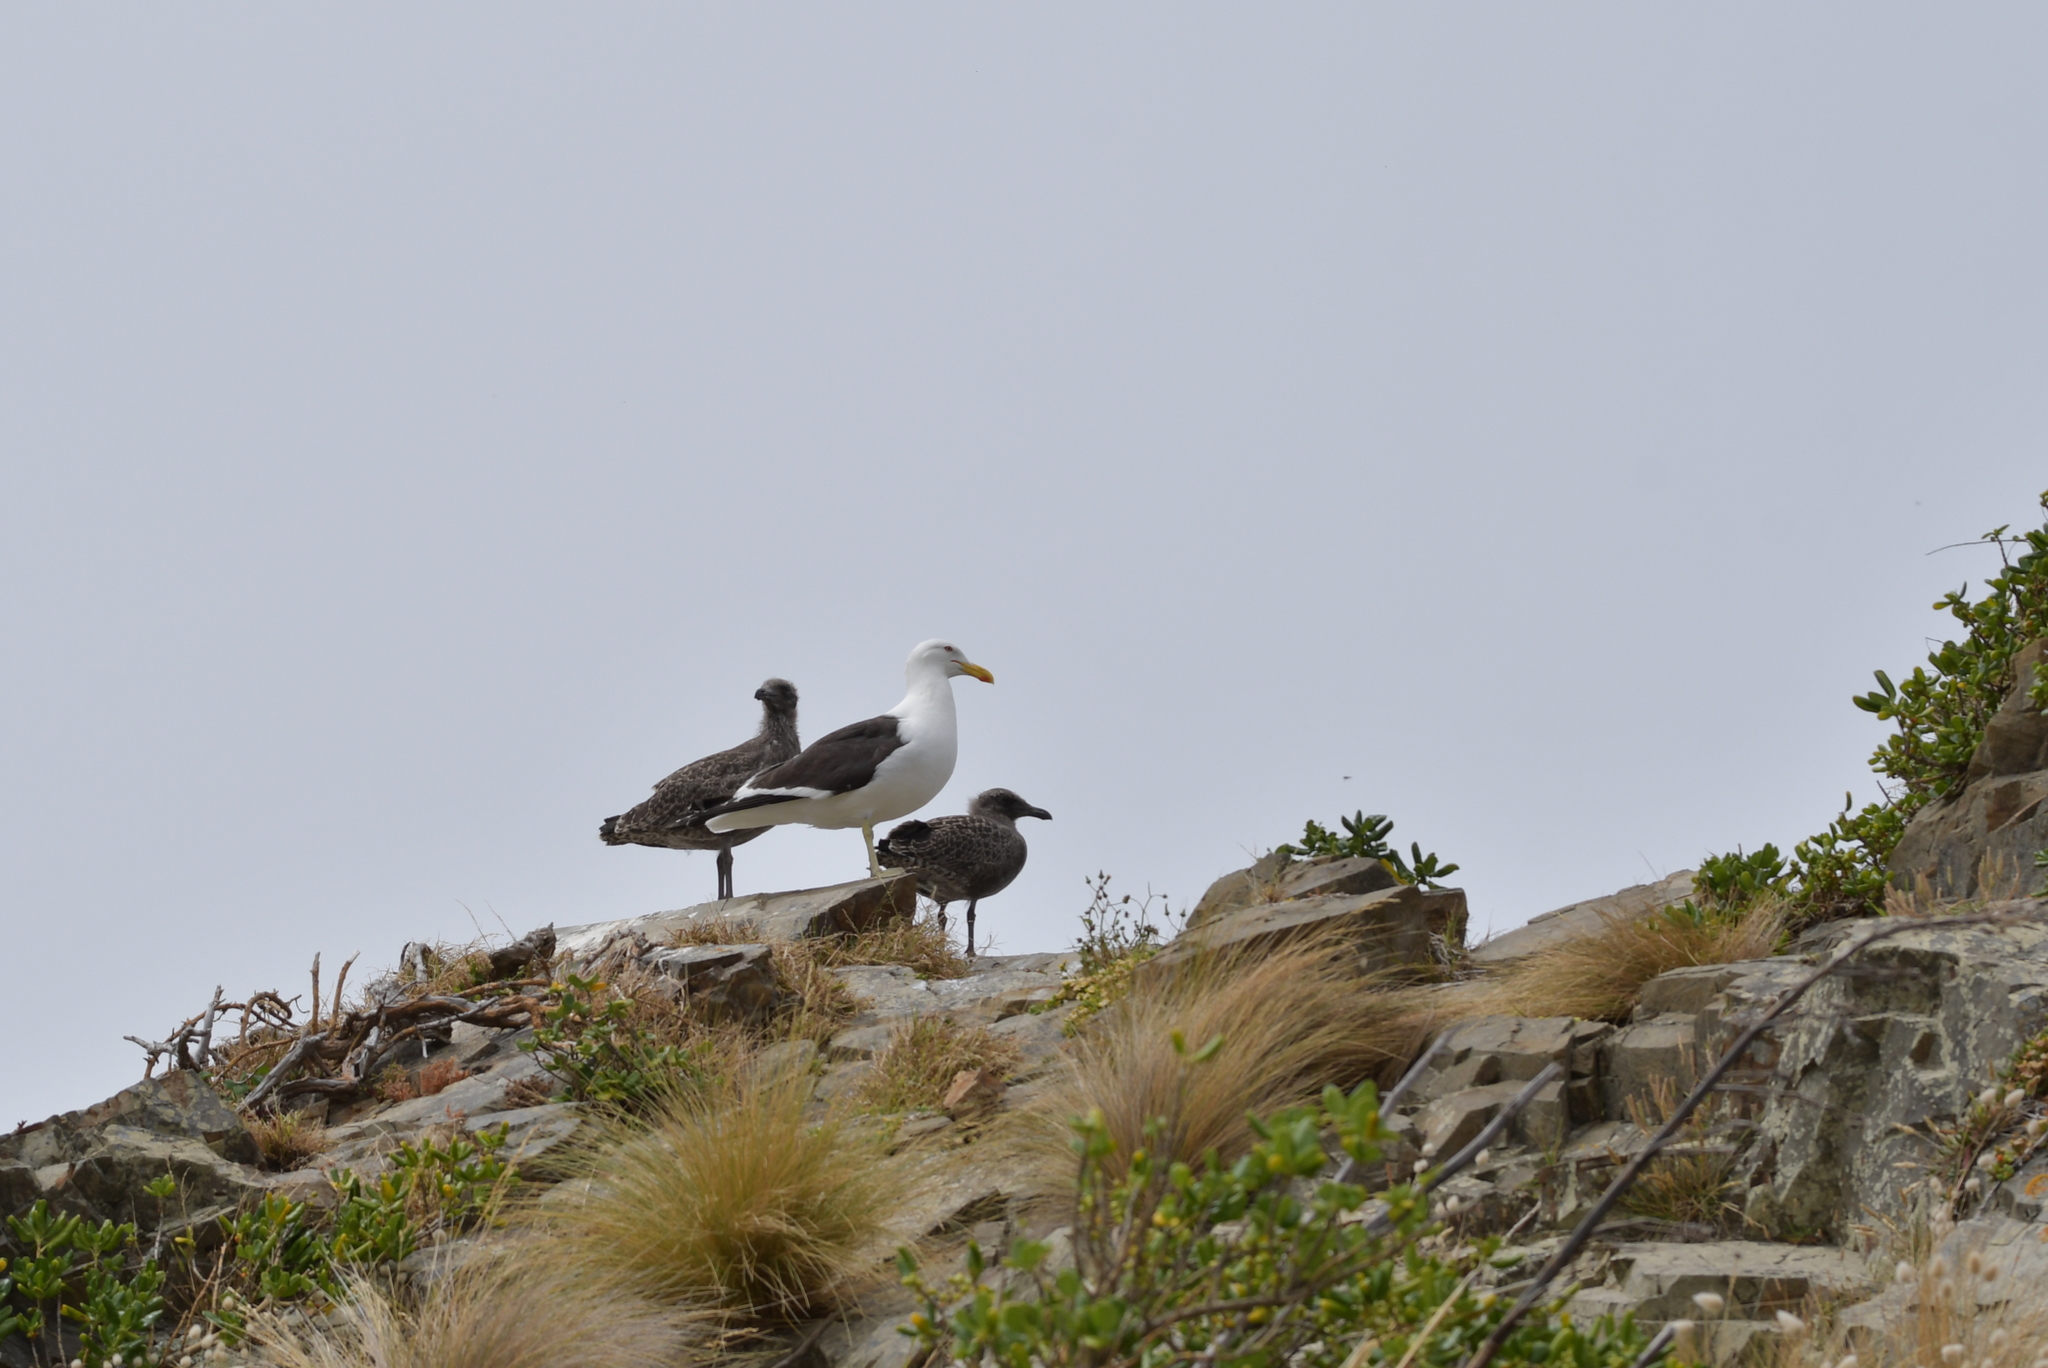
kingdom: Animalia
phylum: Chordata
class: Aves
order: Charadriiformes
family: Laridae
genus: Larus
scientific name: Larus dominicanus
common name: Kelp gull
